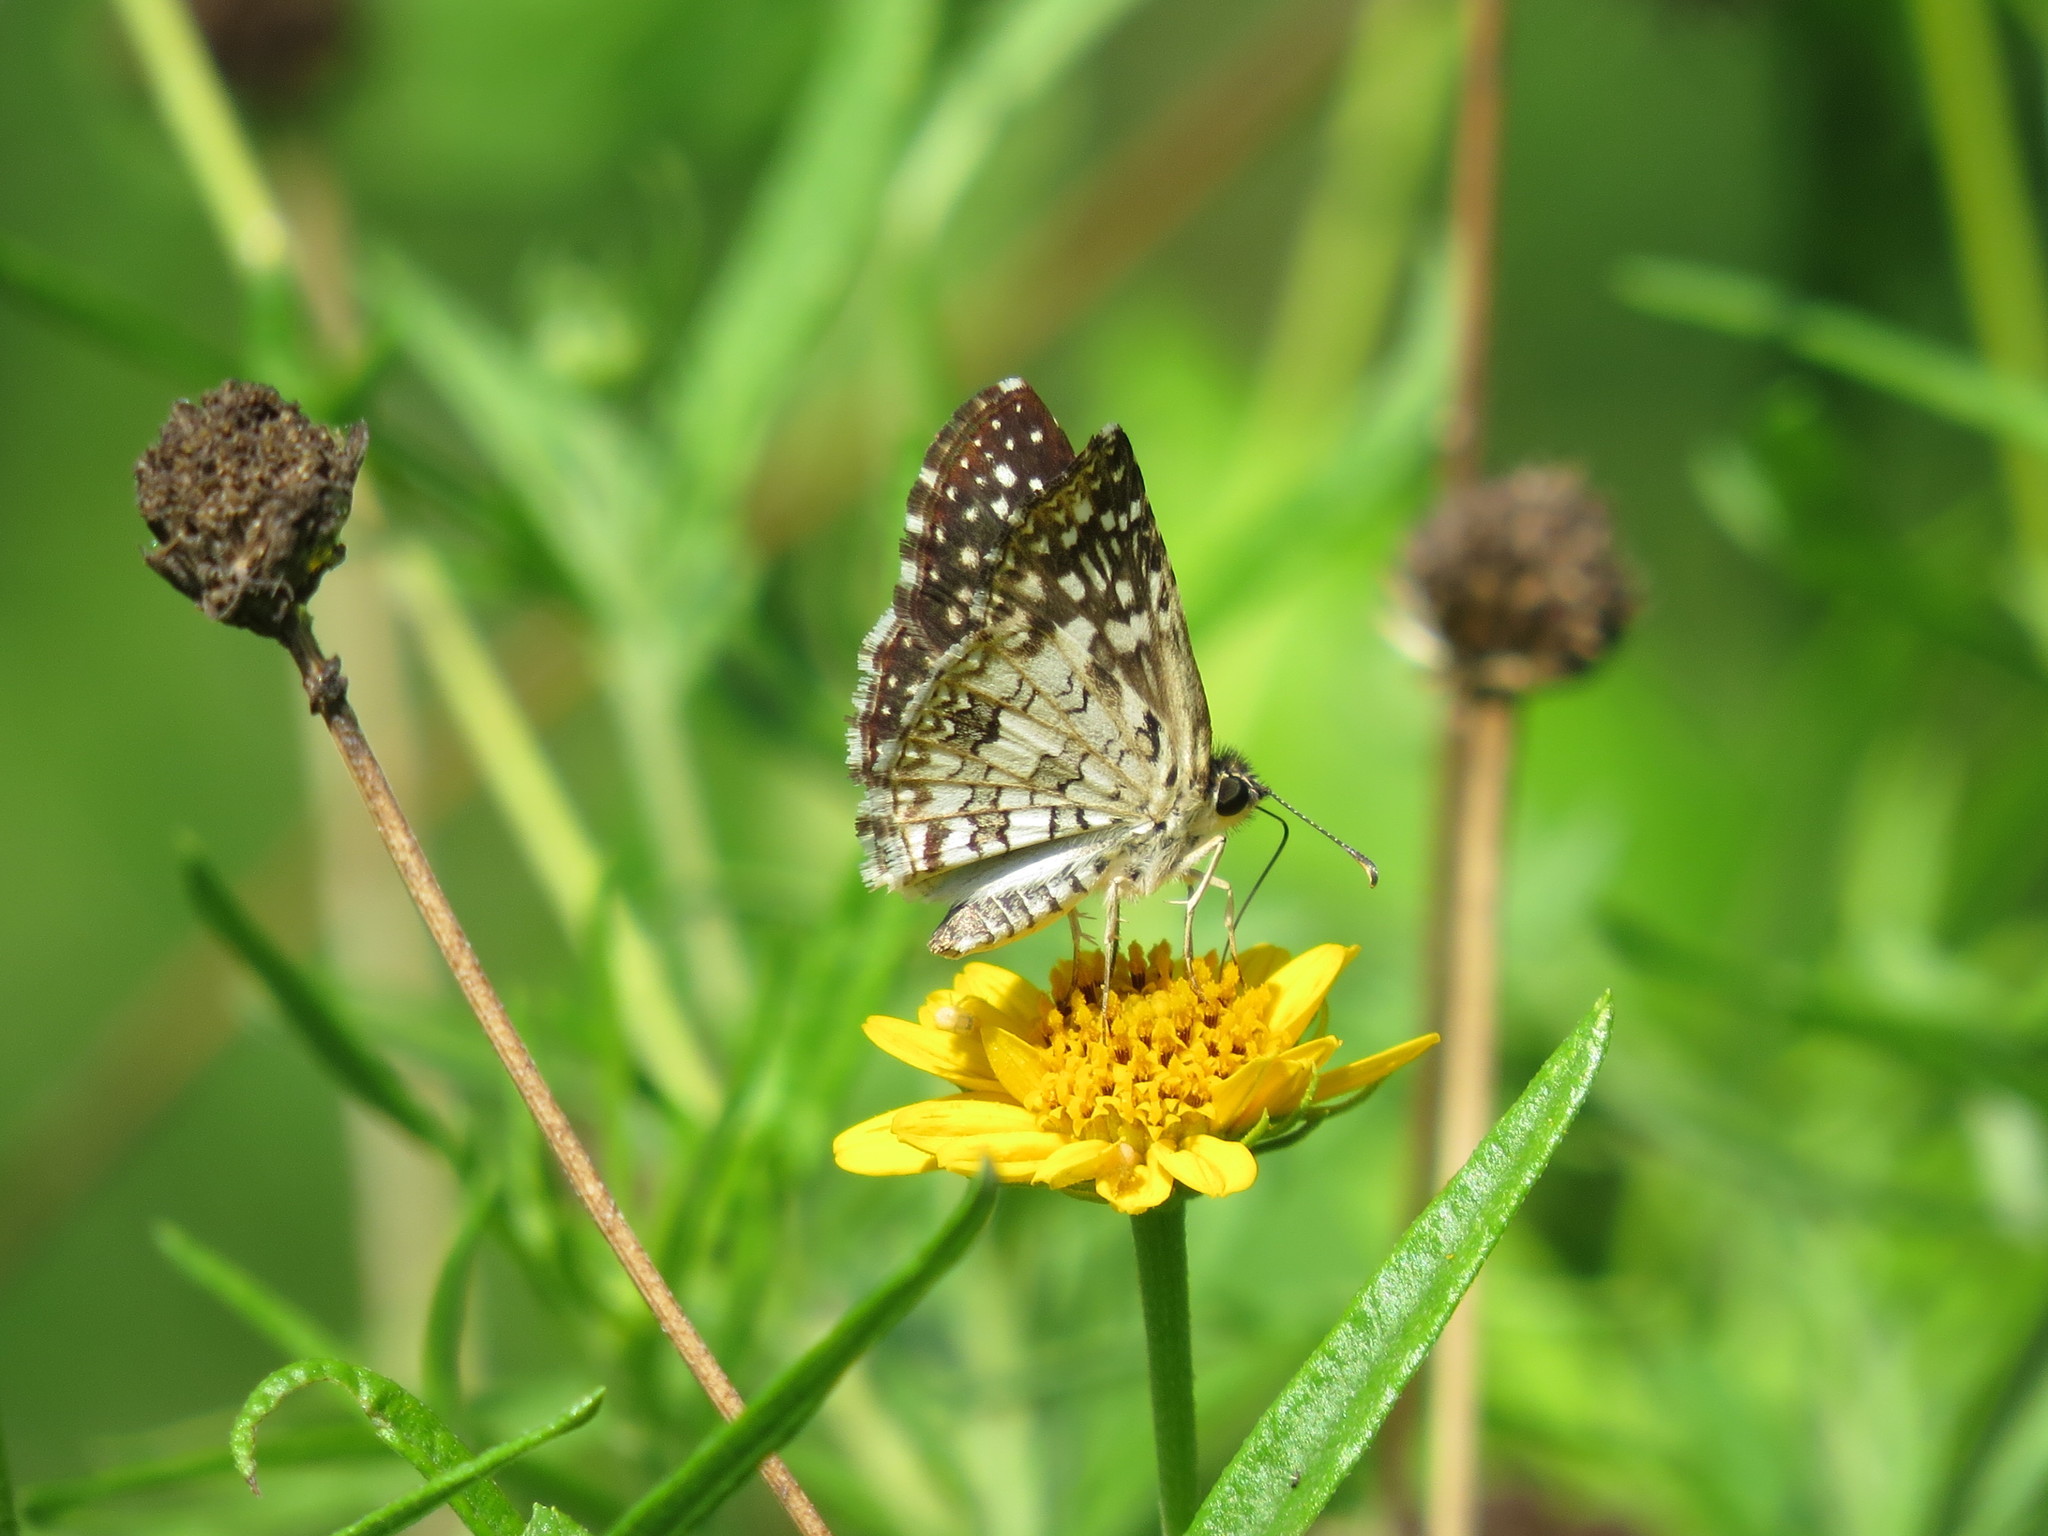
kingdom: Animalia
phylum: Arthropoda
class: Insecta
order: Lepidoptera
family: Hesperiidae
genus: Pyrgus
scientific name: Pyrgus oileus
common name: Tropical checkered-skipper
